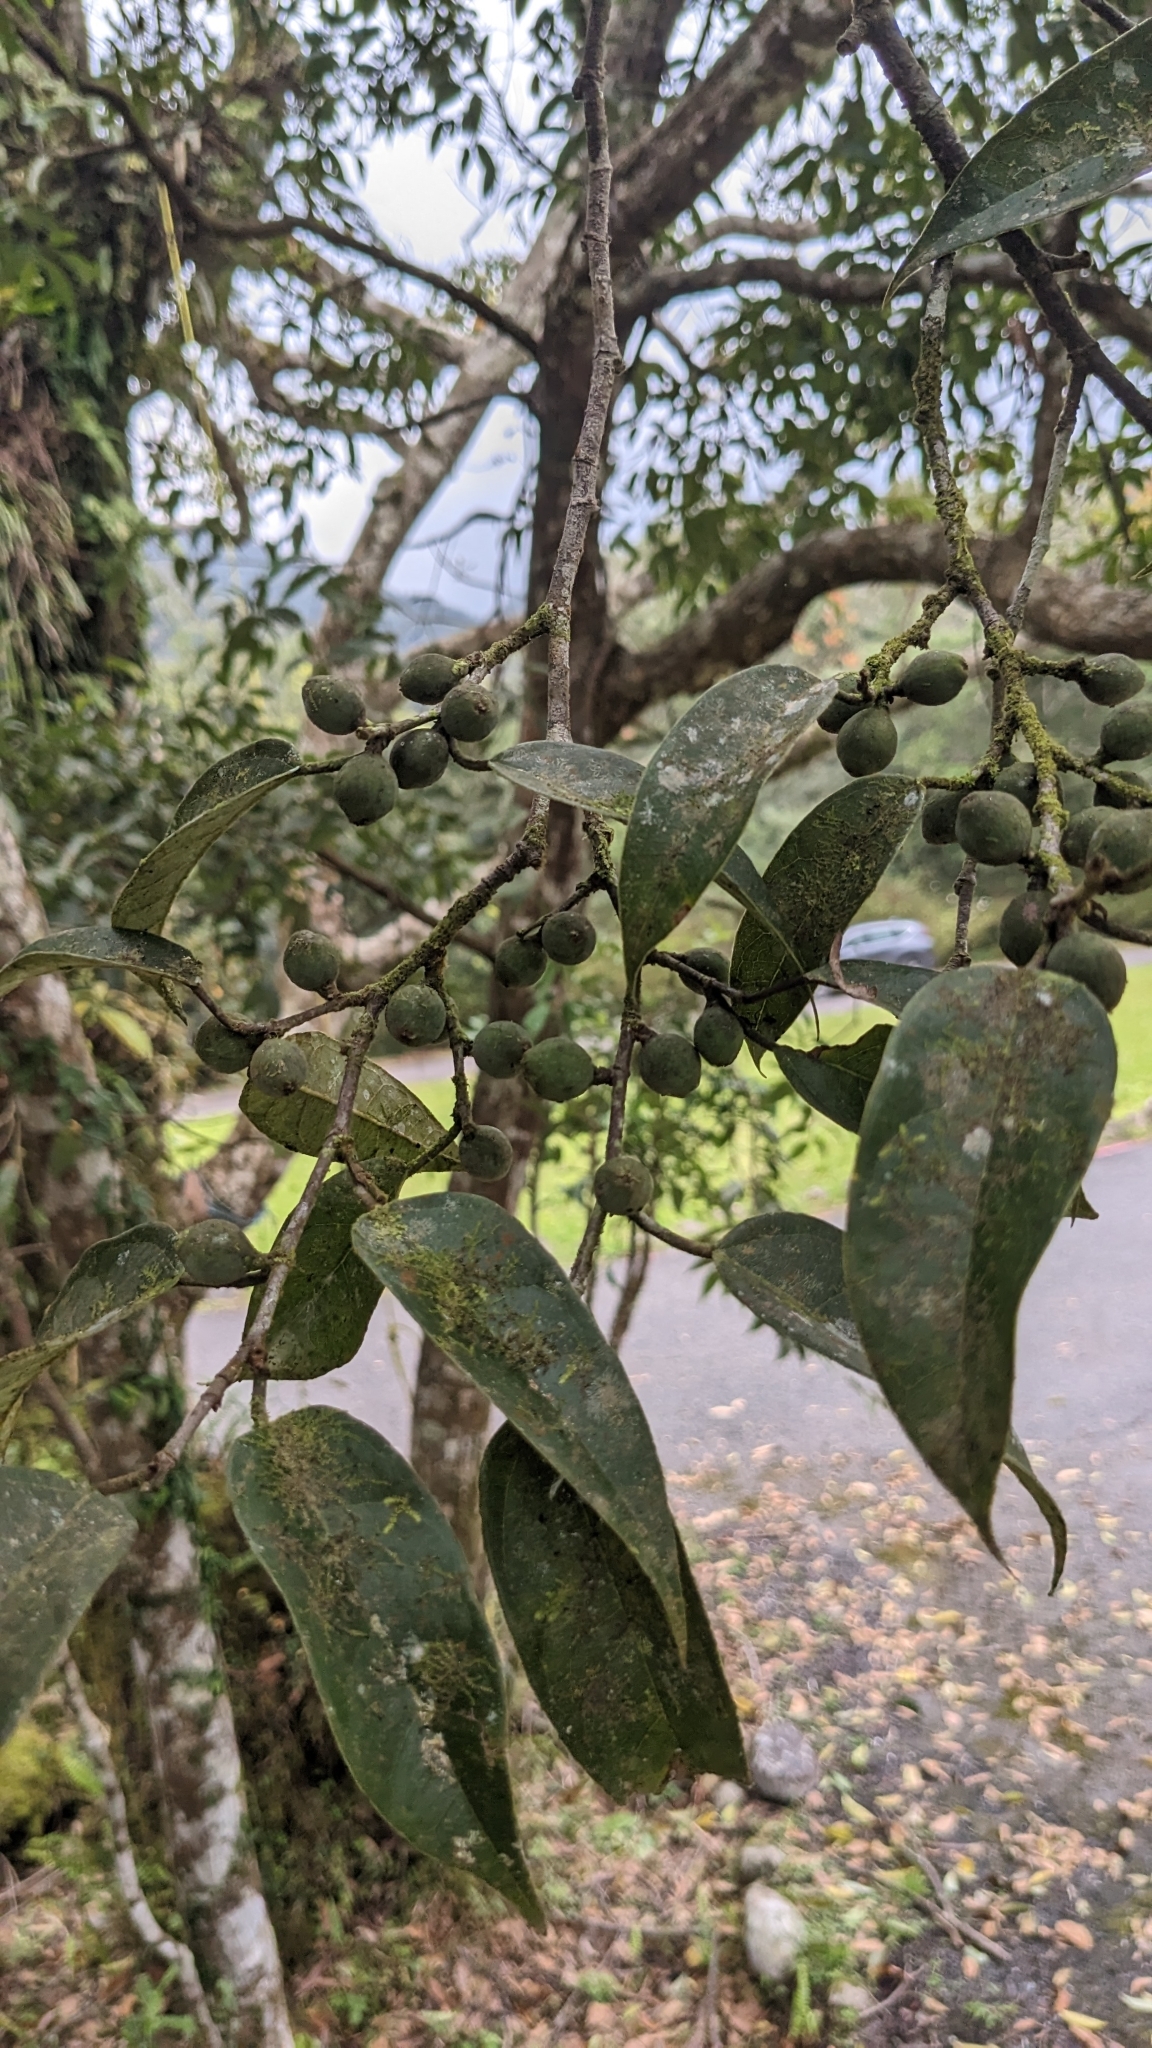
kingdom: Plantae
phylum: Tracheophyta
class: Magnoliopsida
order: Rosales
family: Moraceae
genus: Ficus
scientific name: Ficus sarmentosa
